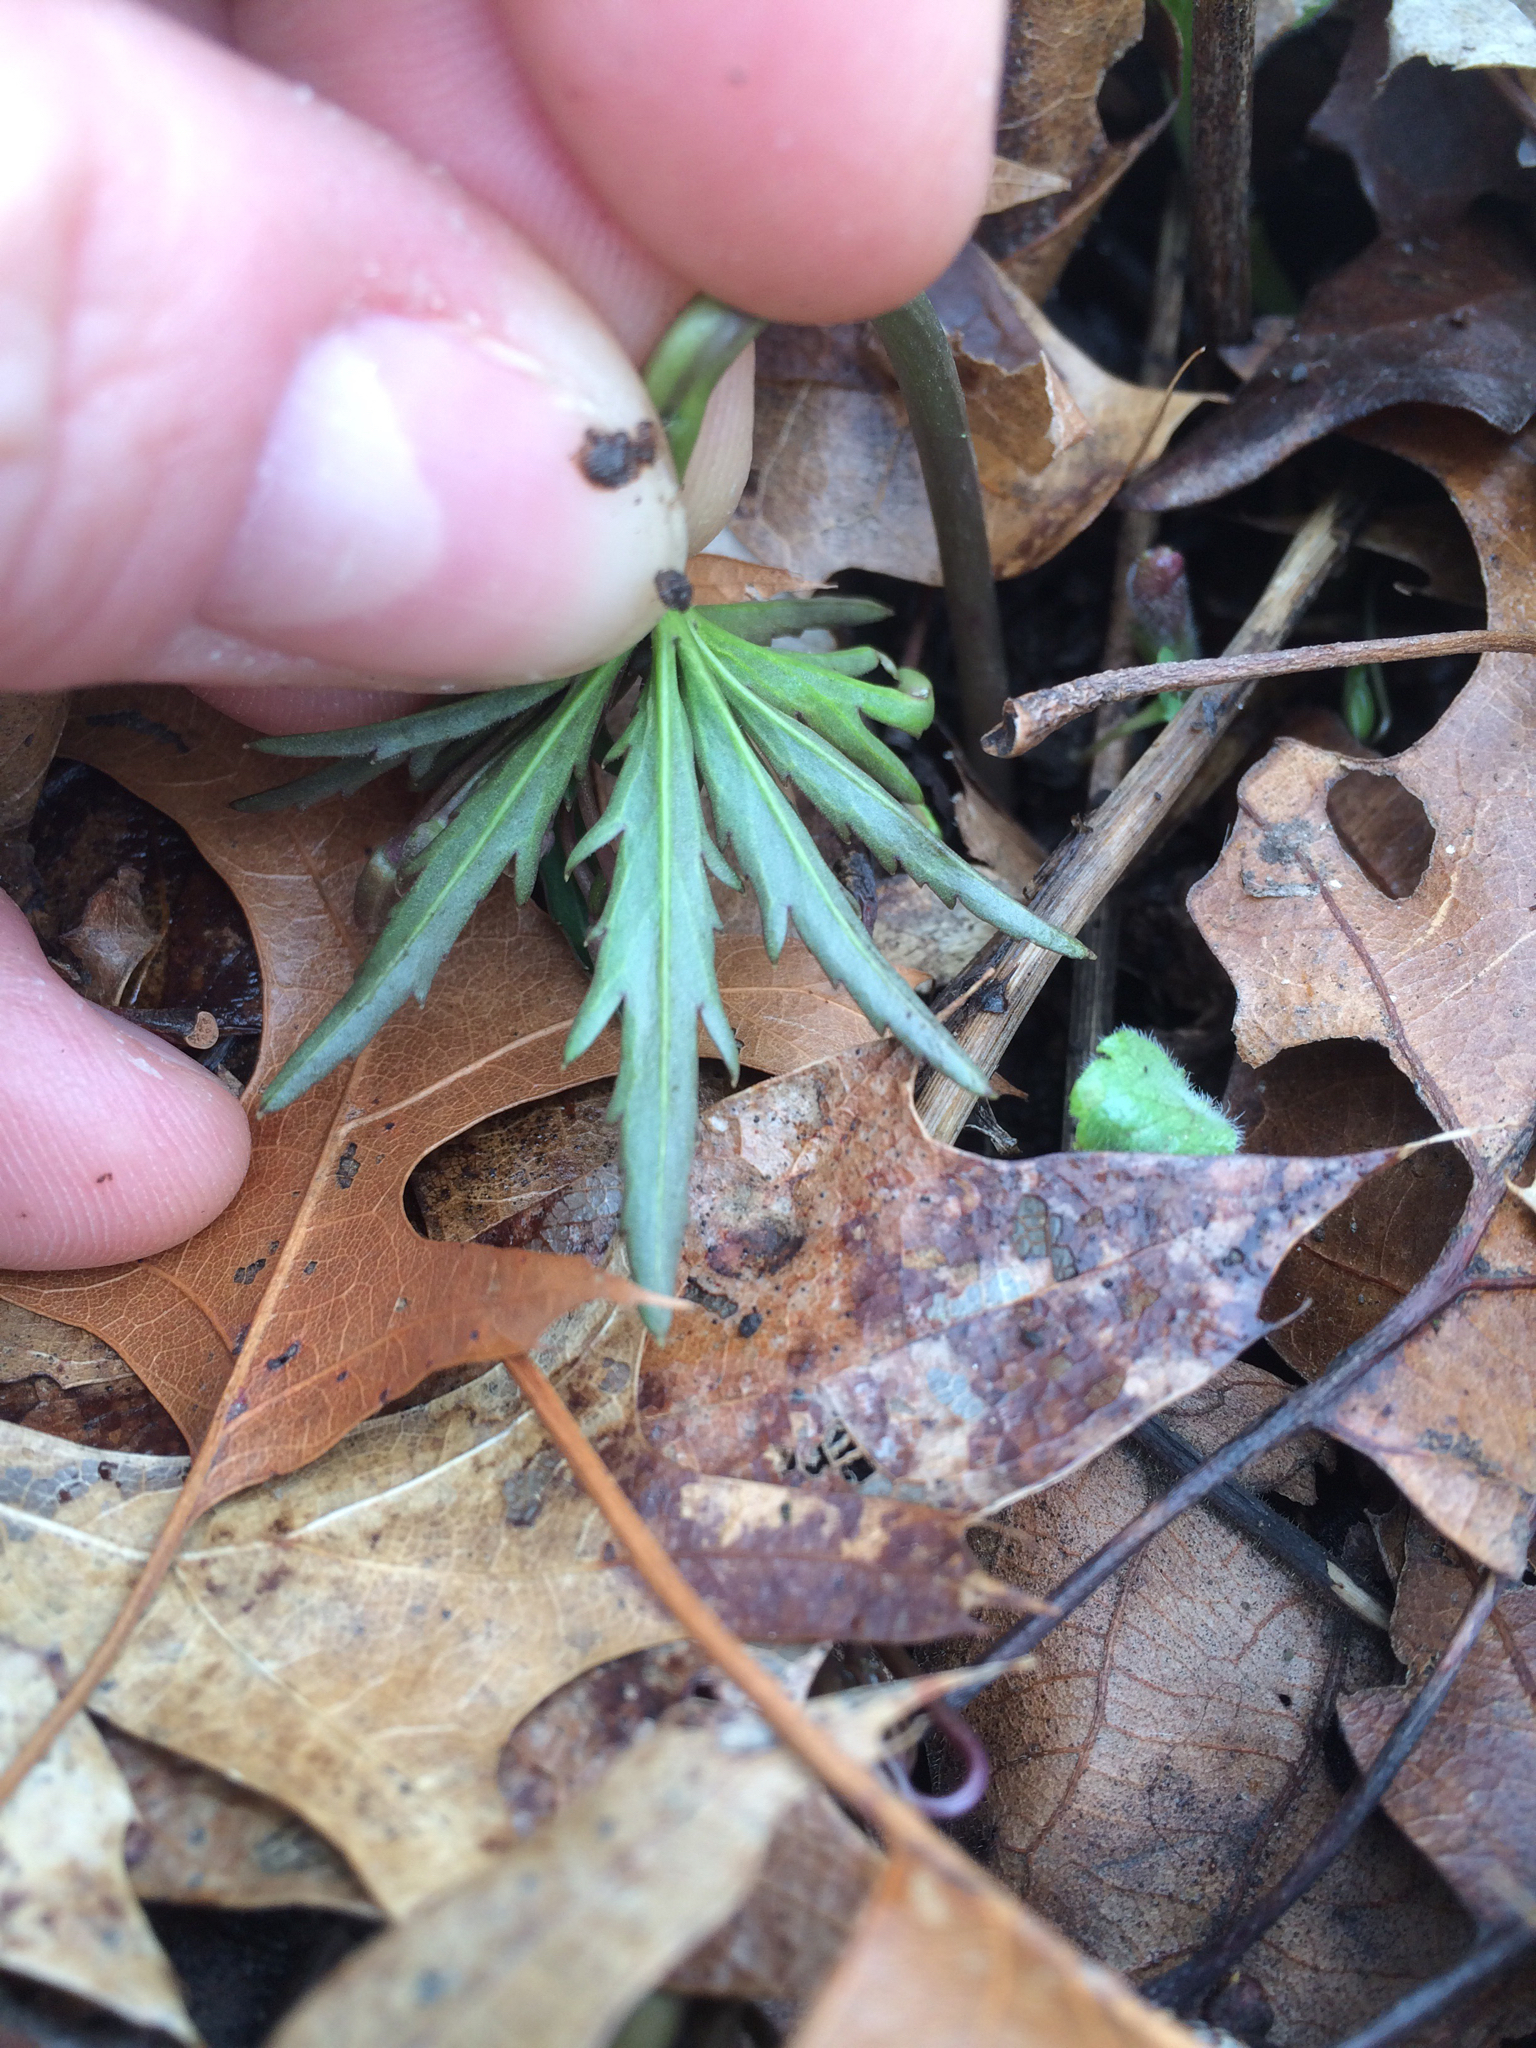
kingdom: Plantae
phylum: Tracheophyta
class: Magnoliopsida
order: Brassicales
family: Brassicaceae
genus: Cardamine
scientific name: Cardamine concatenata
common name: Cut-leaf toothcup
